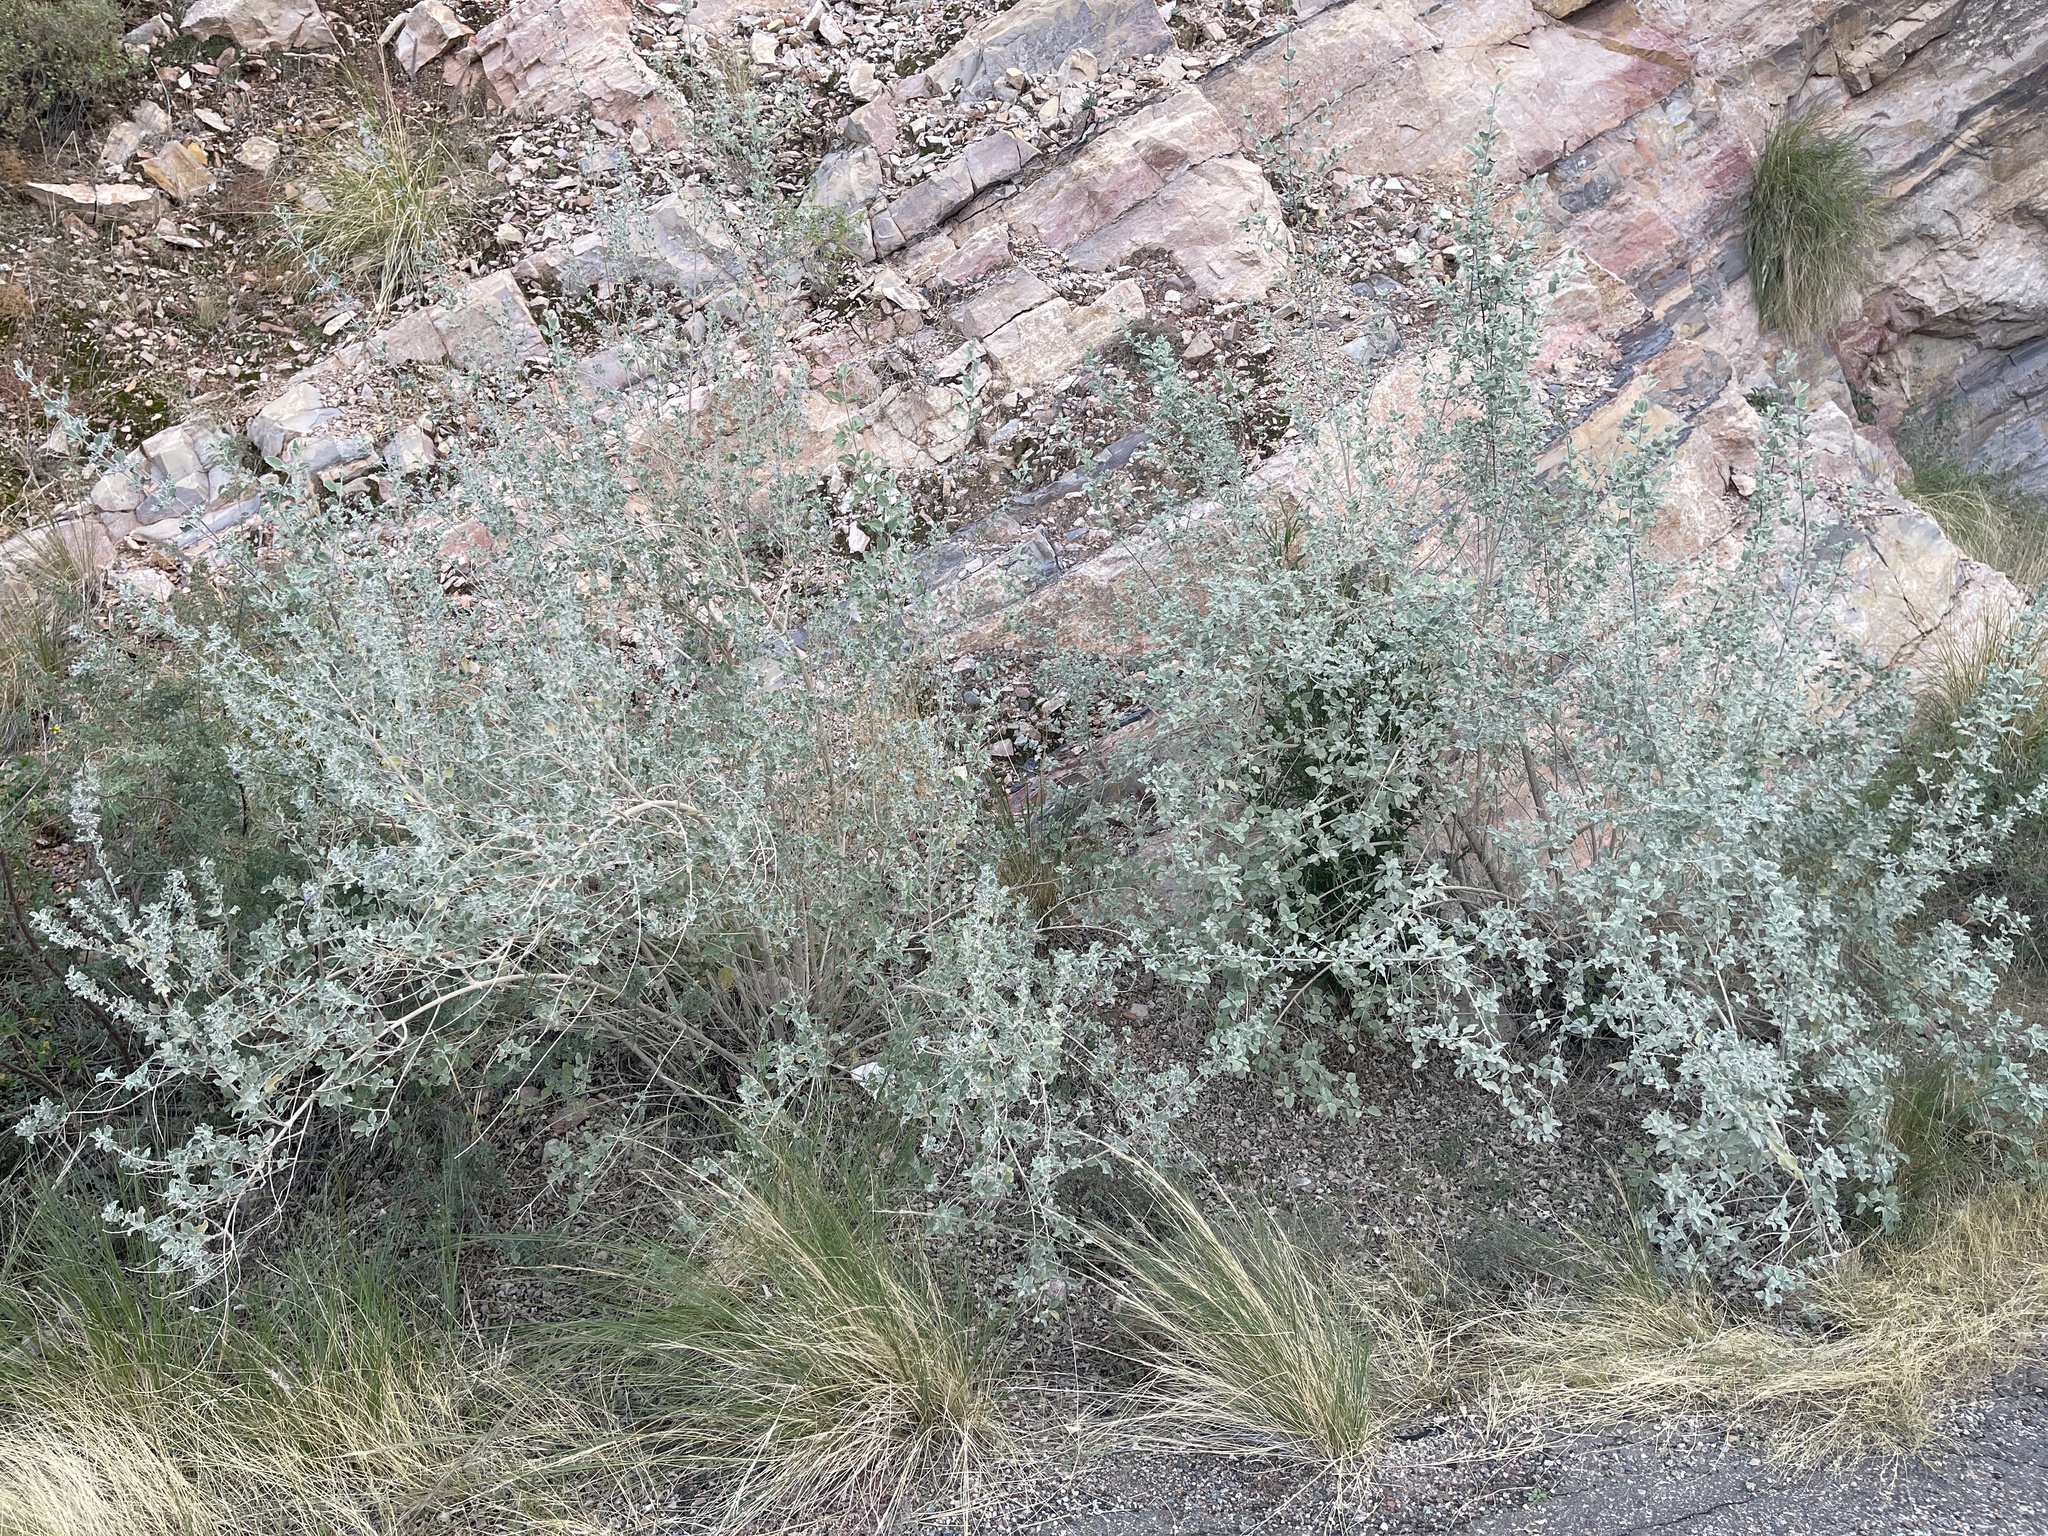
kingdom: Plantae
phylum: Tracheophyta
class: Magnoliopsida
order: Lamiales
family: Lamiaceae
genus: Condea
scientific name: Condea emoryi
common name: Chia
